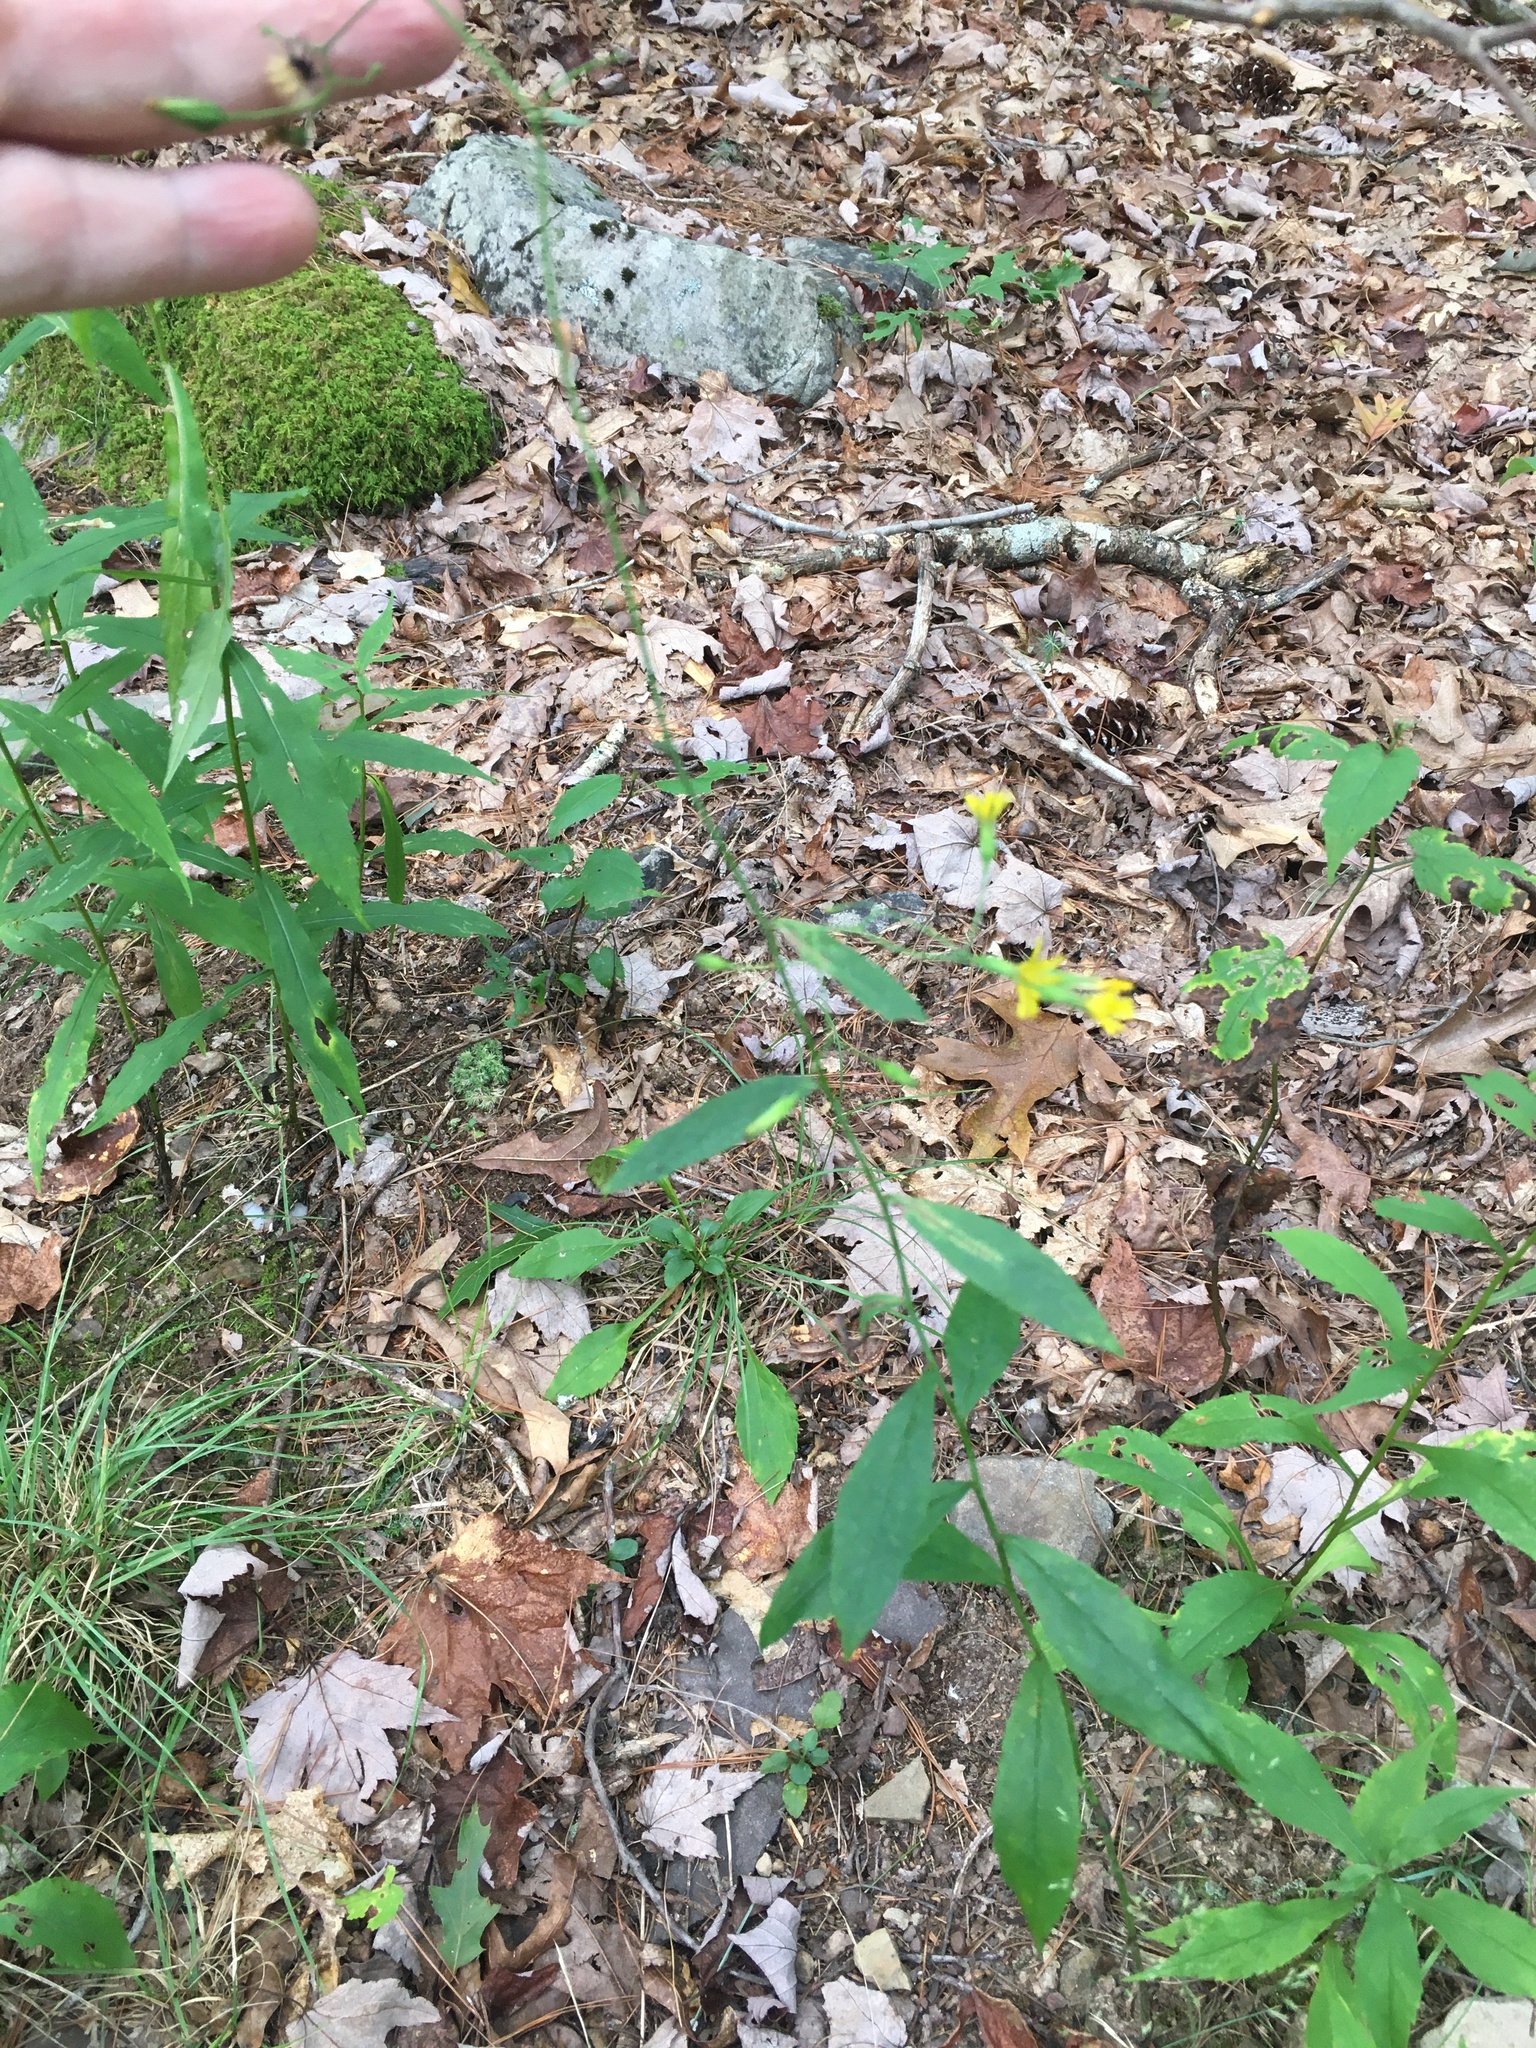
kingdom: Plantae
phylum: Tracheophyta
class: Magnoliopsida
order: Asterales
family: Asteraceae
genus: Hieracium
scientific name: Hieracium paniculatum
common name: Allegheny hawkweed
